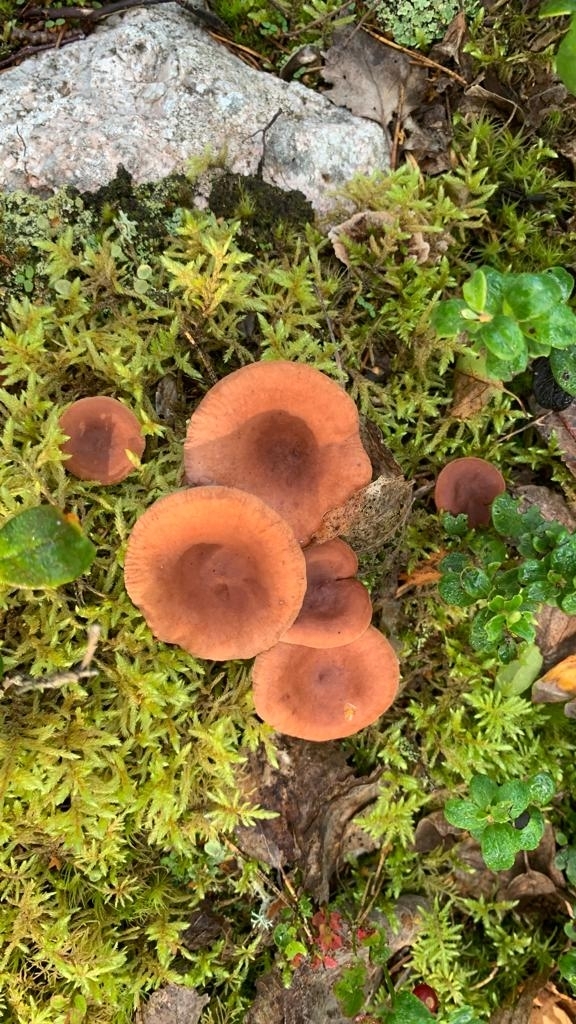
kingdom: Fungi
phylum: Basidiomycota
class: Agaricomycetes
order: Russulales
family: Russulaceae
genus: Lactarius
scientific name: Lactarius camphoratus
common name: Curry milkcap
